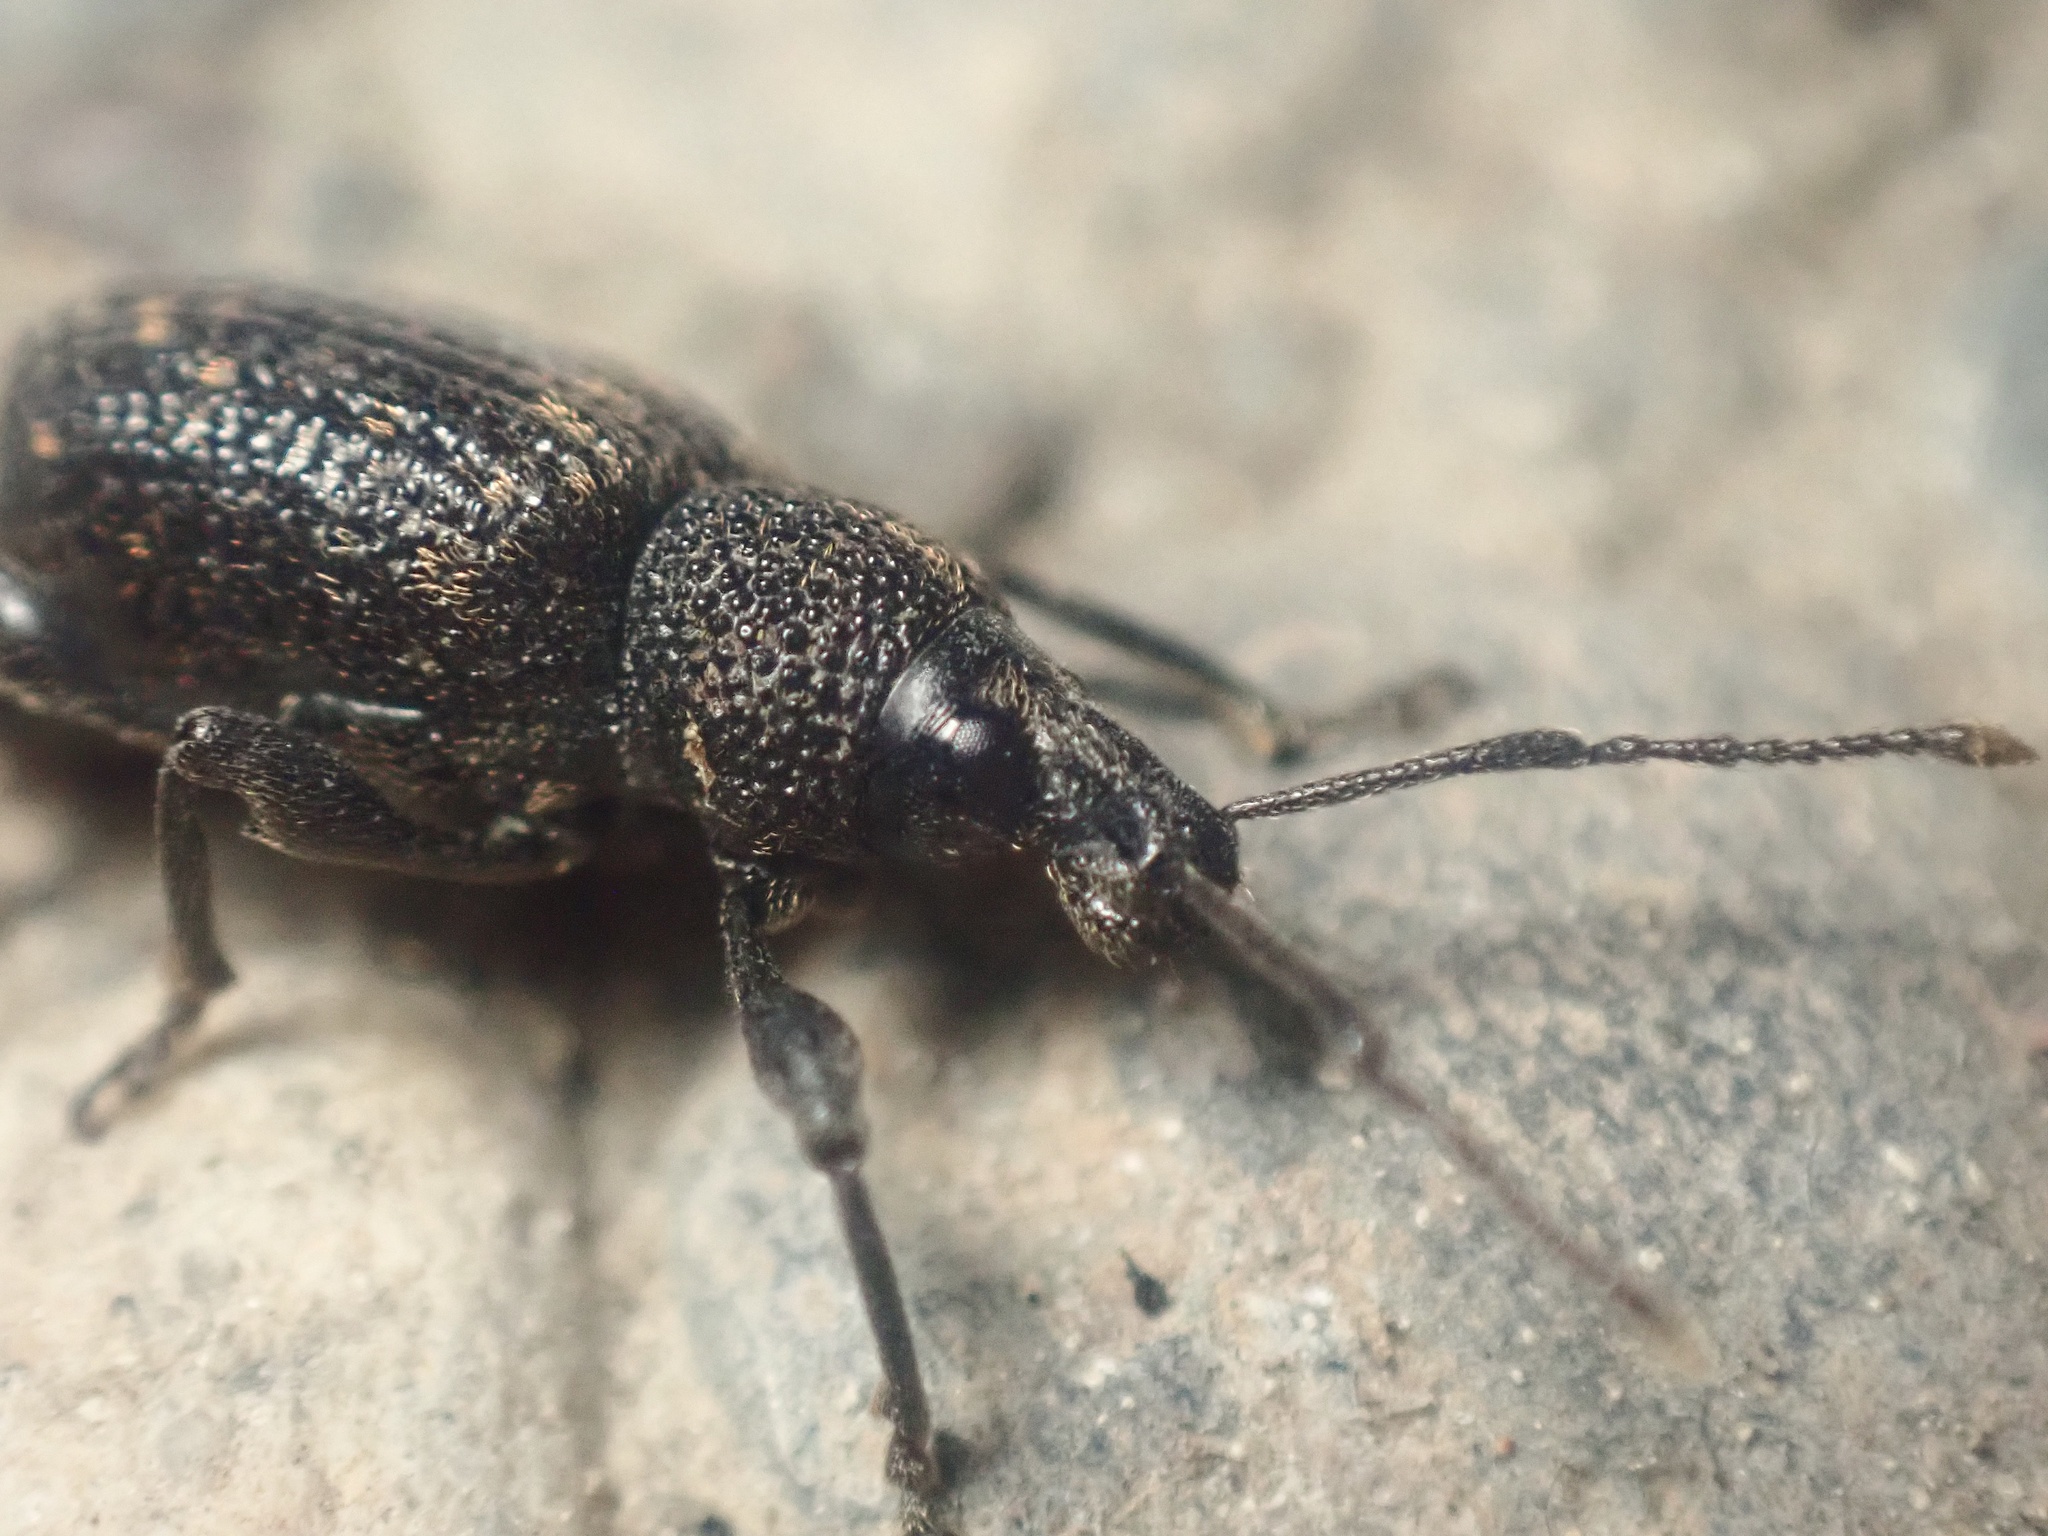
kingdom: Animalia
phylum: Arthropoda
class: Insecta
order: Coleoptera
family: Curculionidae
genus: Otiorhynchus
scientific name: Otiorhynchus sulcatus
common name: Black vine weevil
